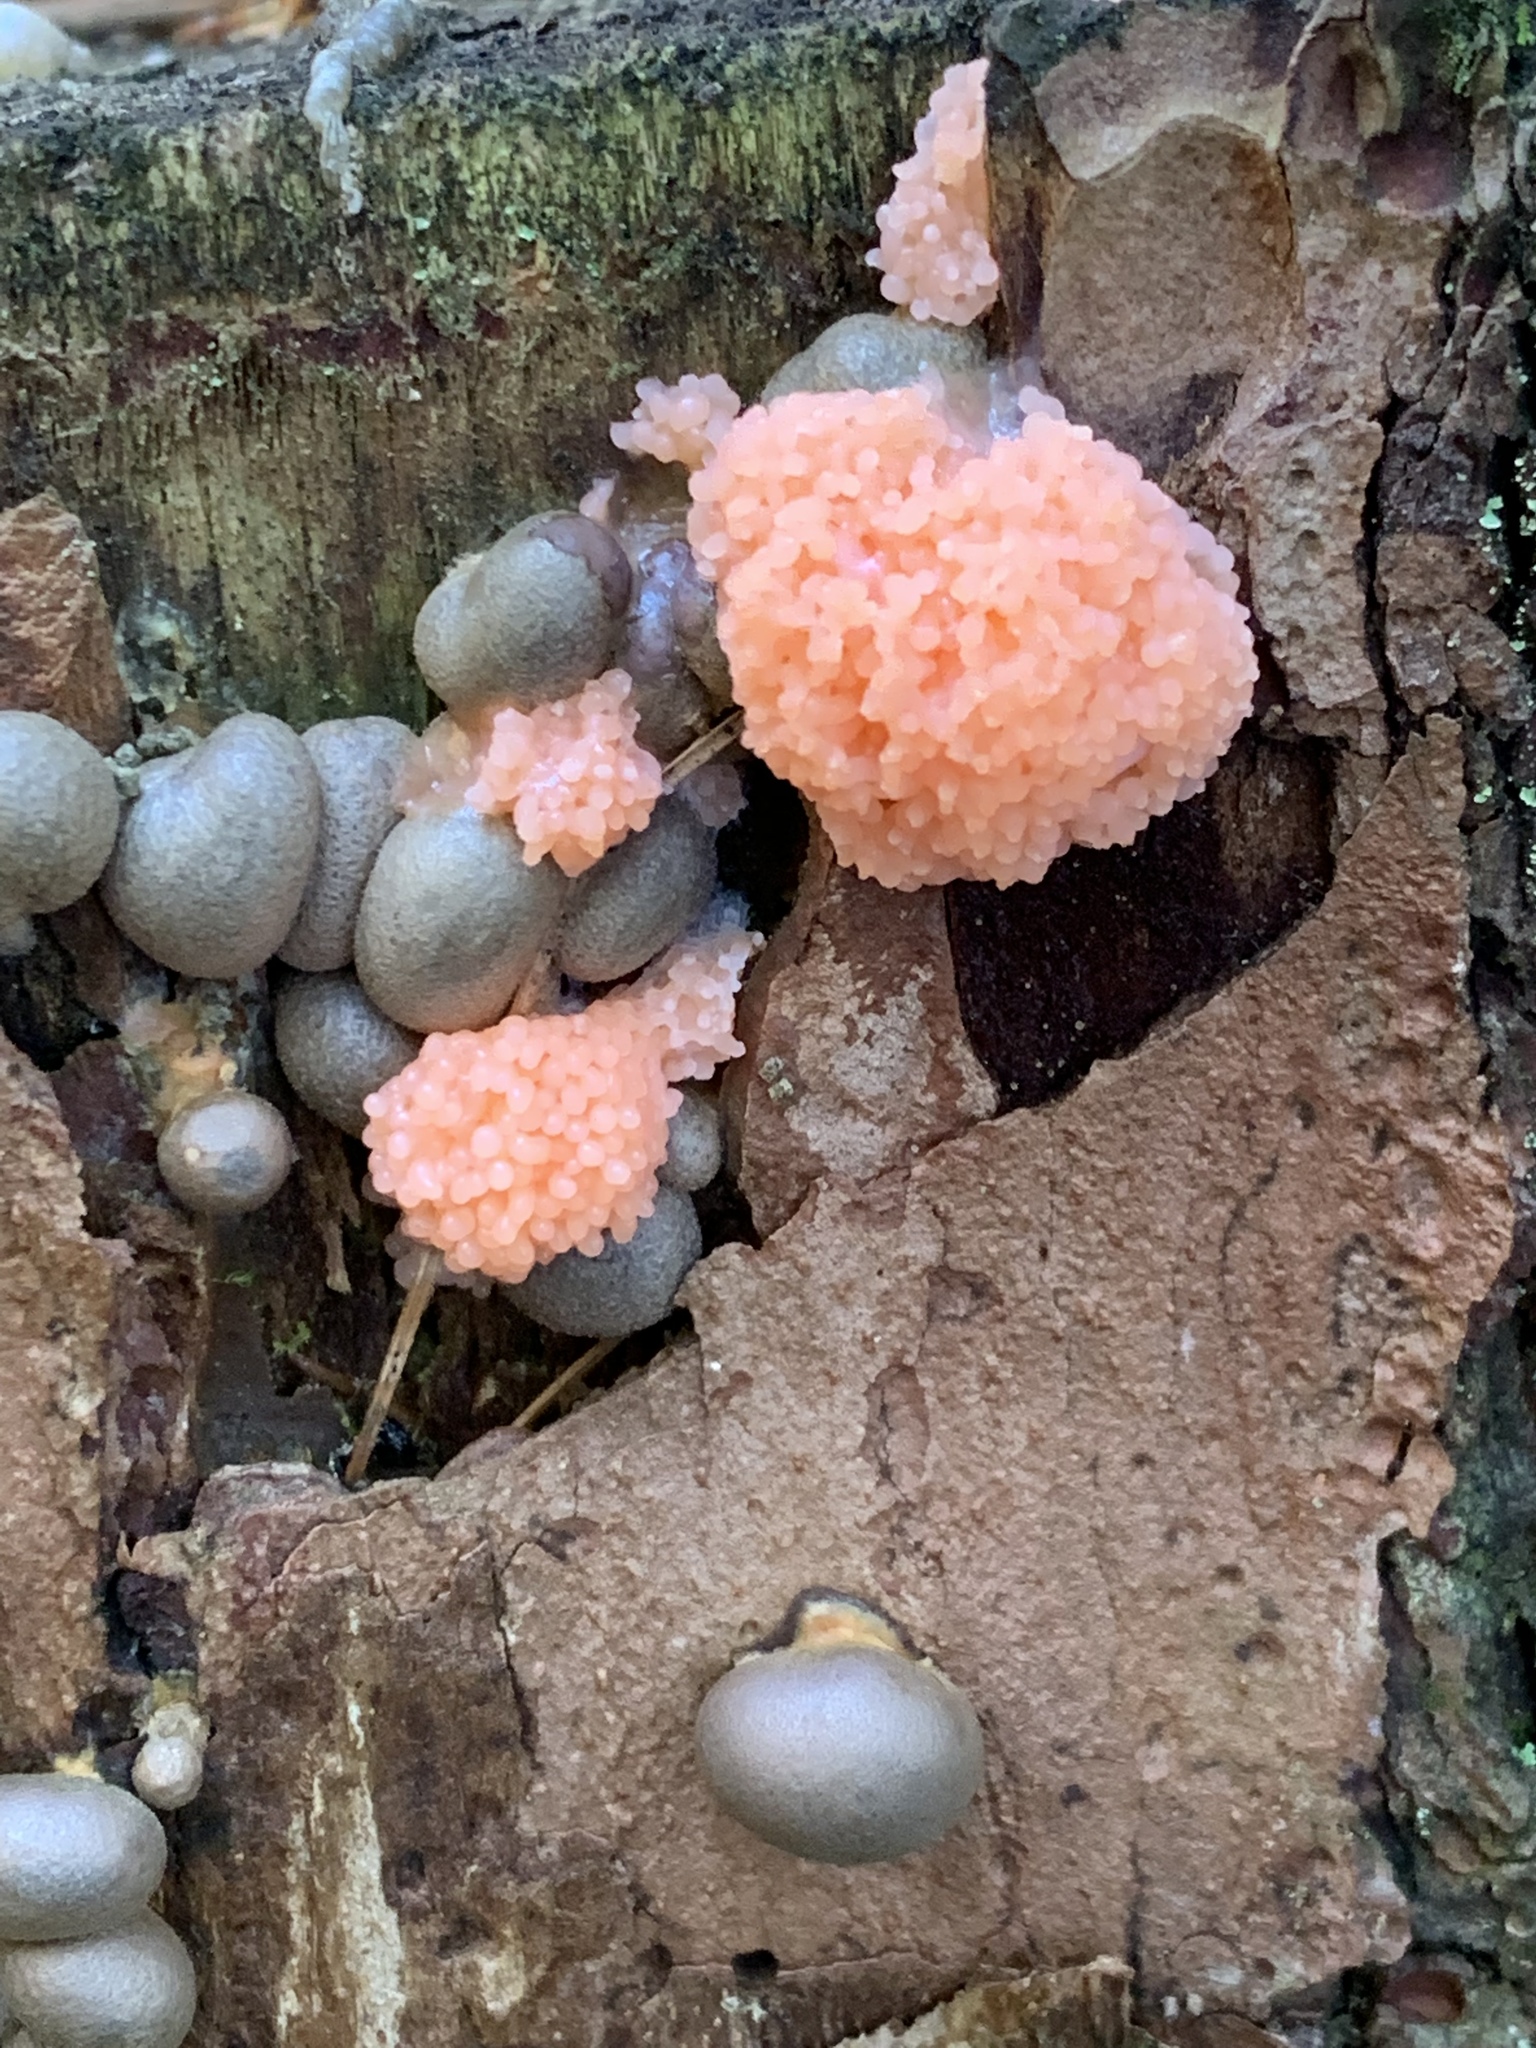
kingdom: Protozoa
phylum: Mycetozoa
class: Myxomycetes
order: Cribrariales
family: Tubiferaceae
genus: Lycogala
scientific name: Lycogala epidendrum
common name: Wolf's milk
